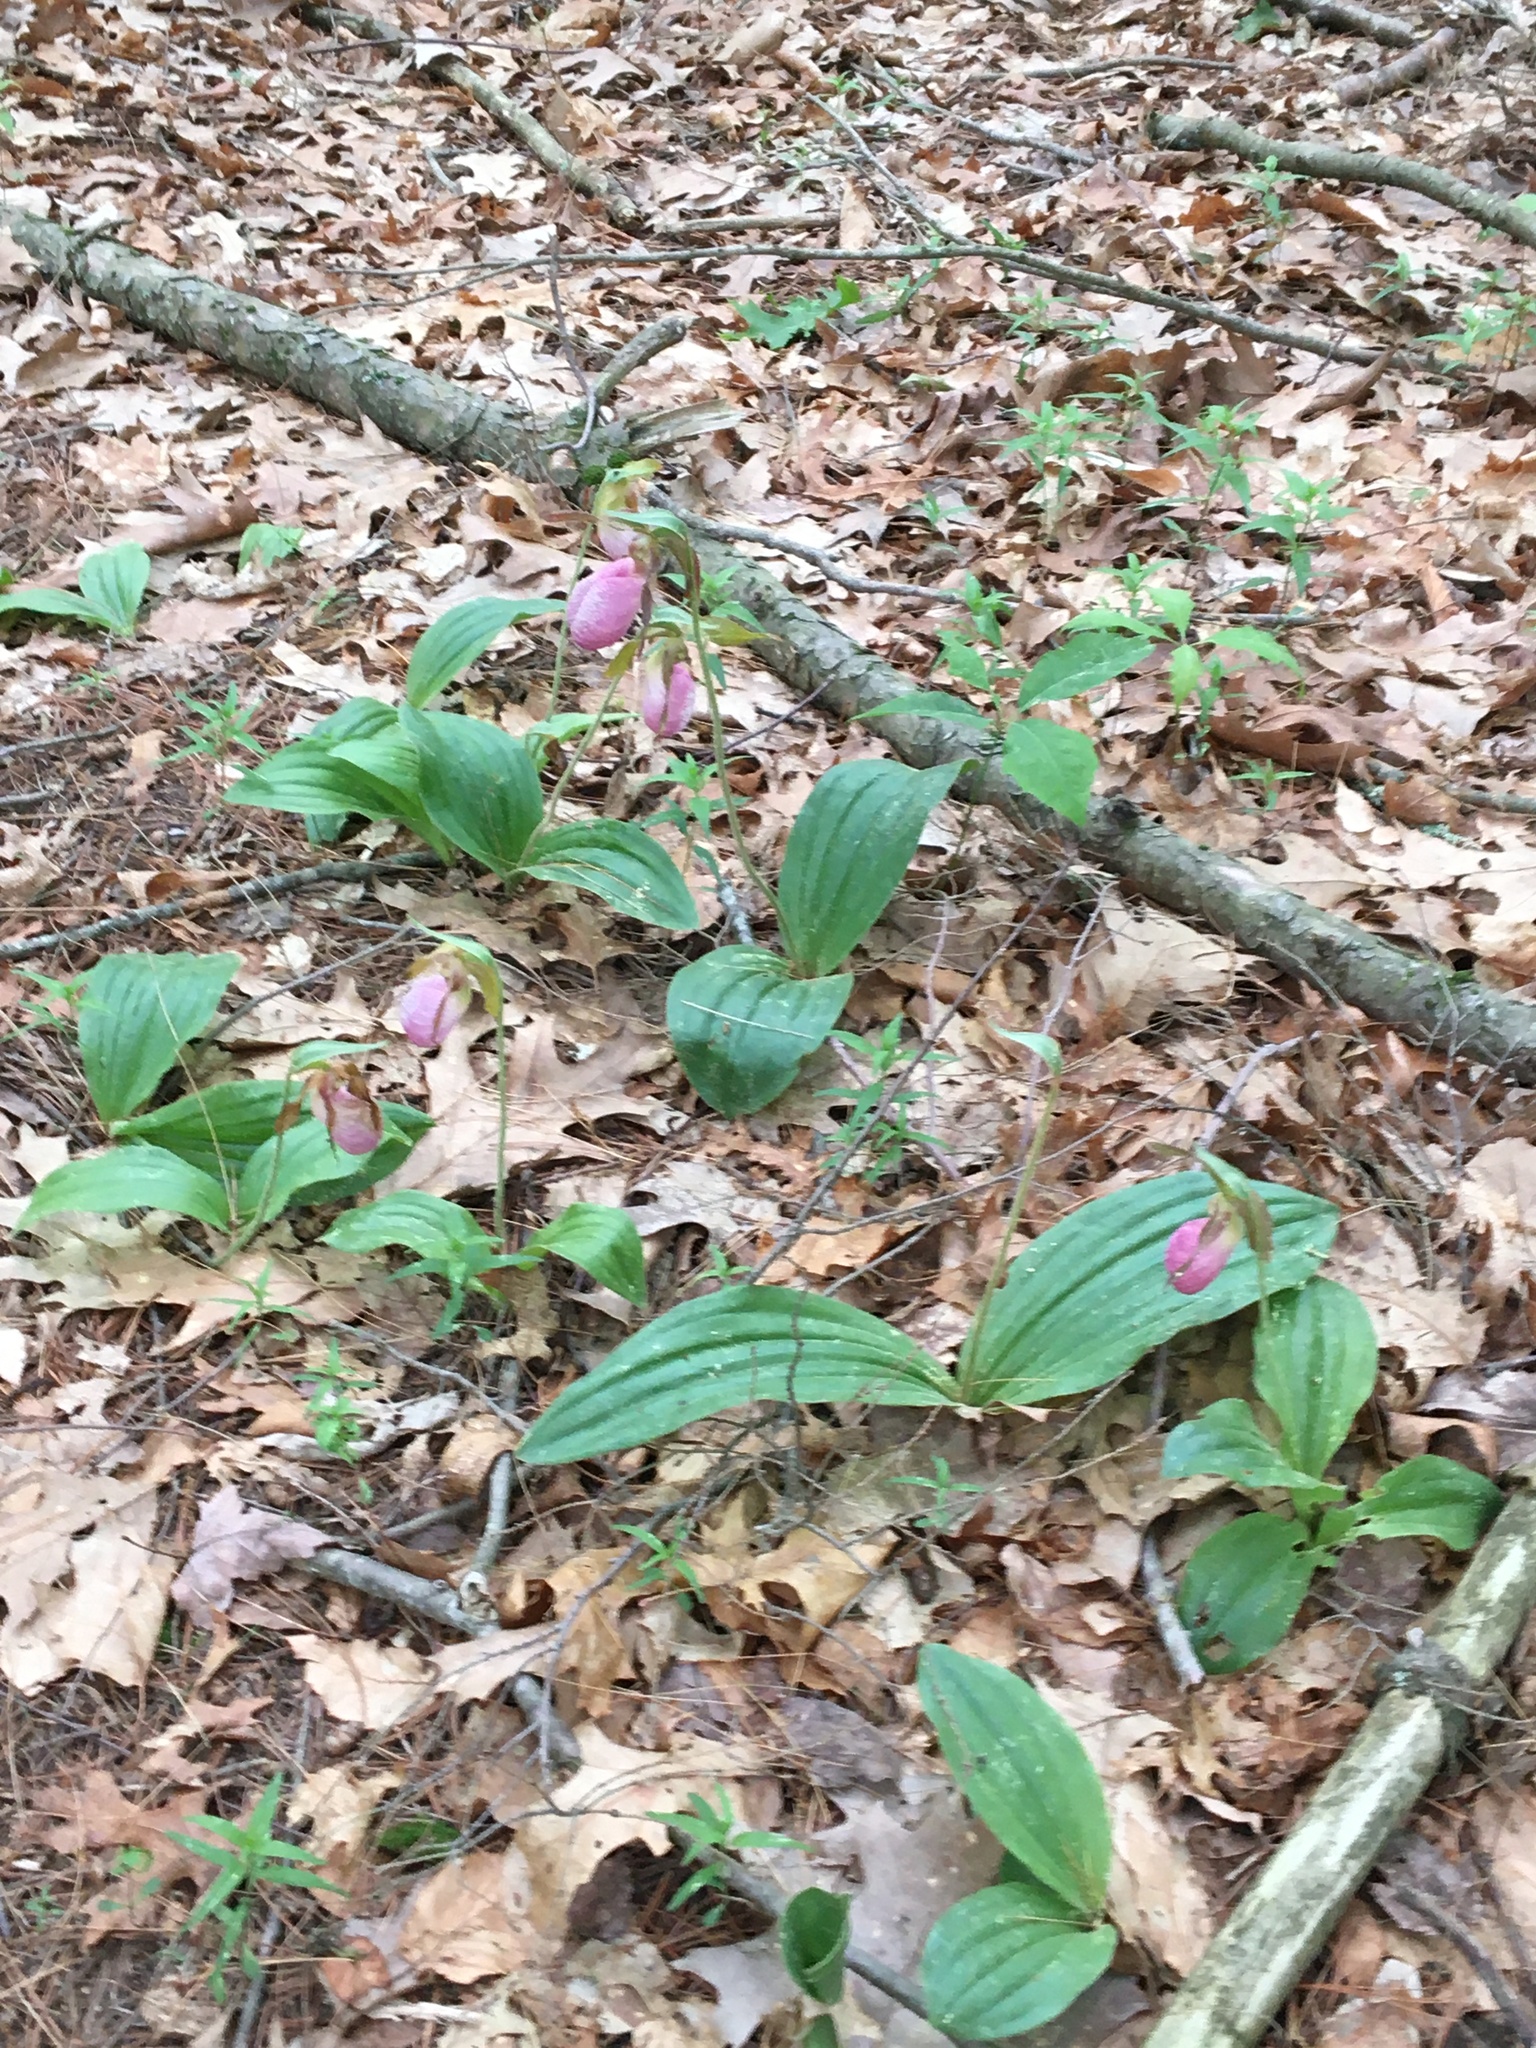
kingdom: Plantae
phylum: Tracheophyta
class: Liliopsida
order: Asparagales
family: Orchidaceae
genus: Cypripedium
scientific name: Cypripedium acaule
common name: Pink lady's-slipper
